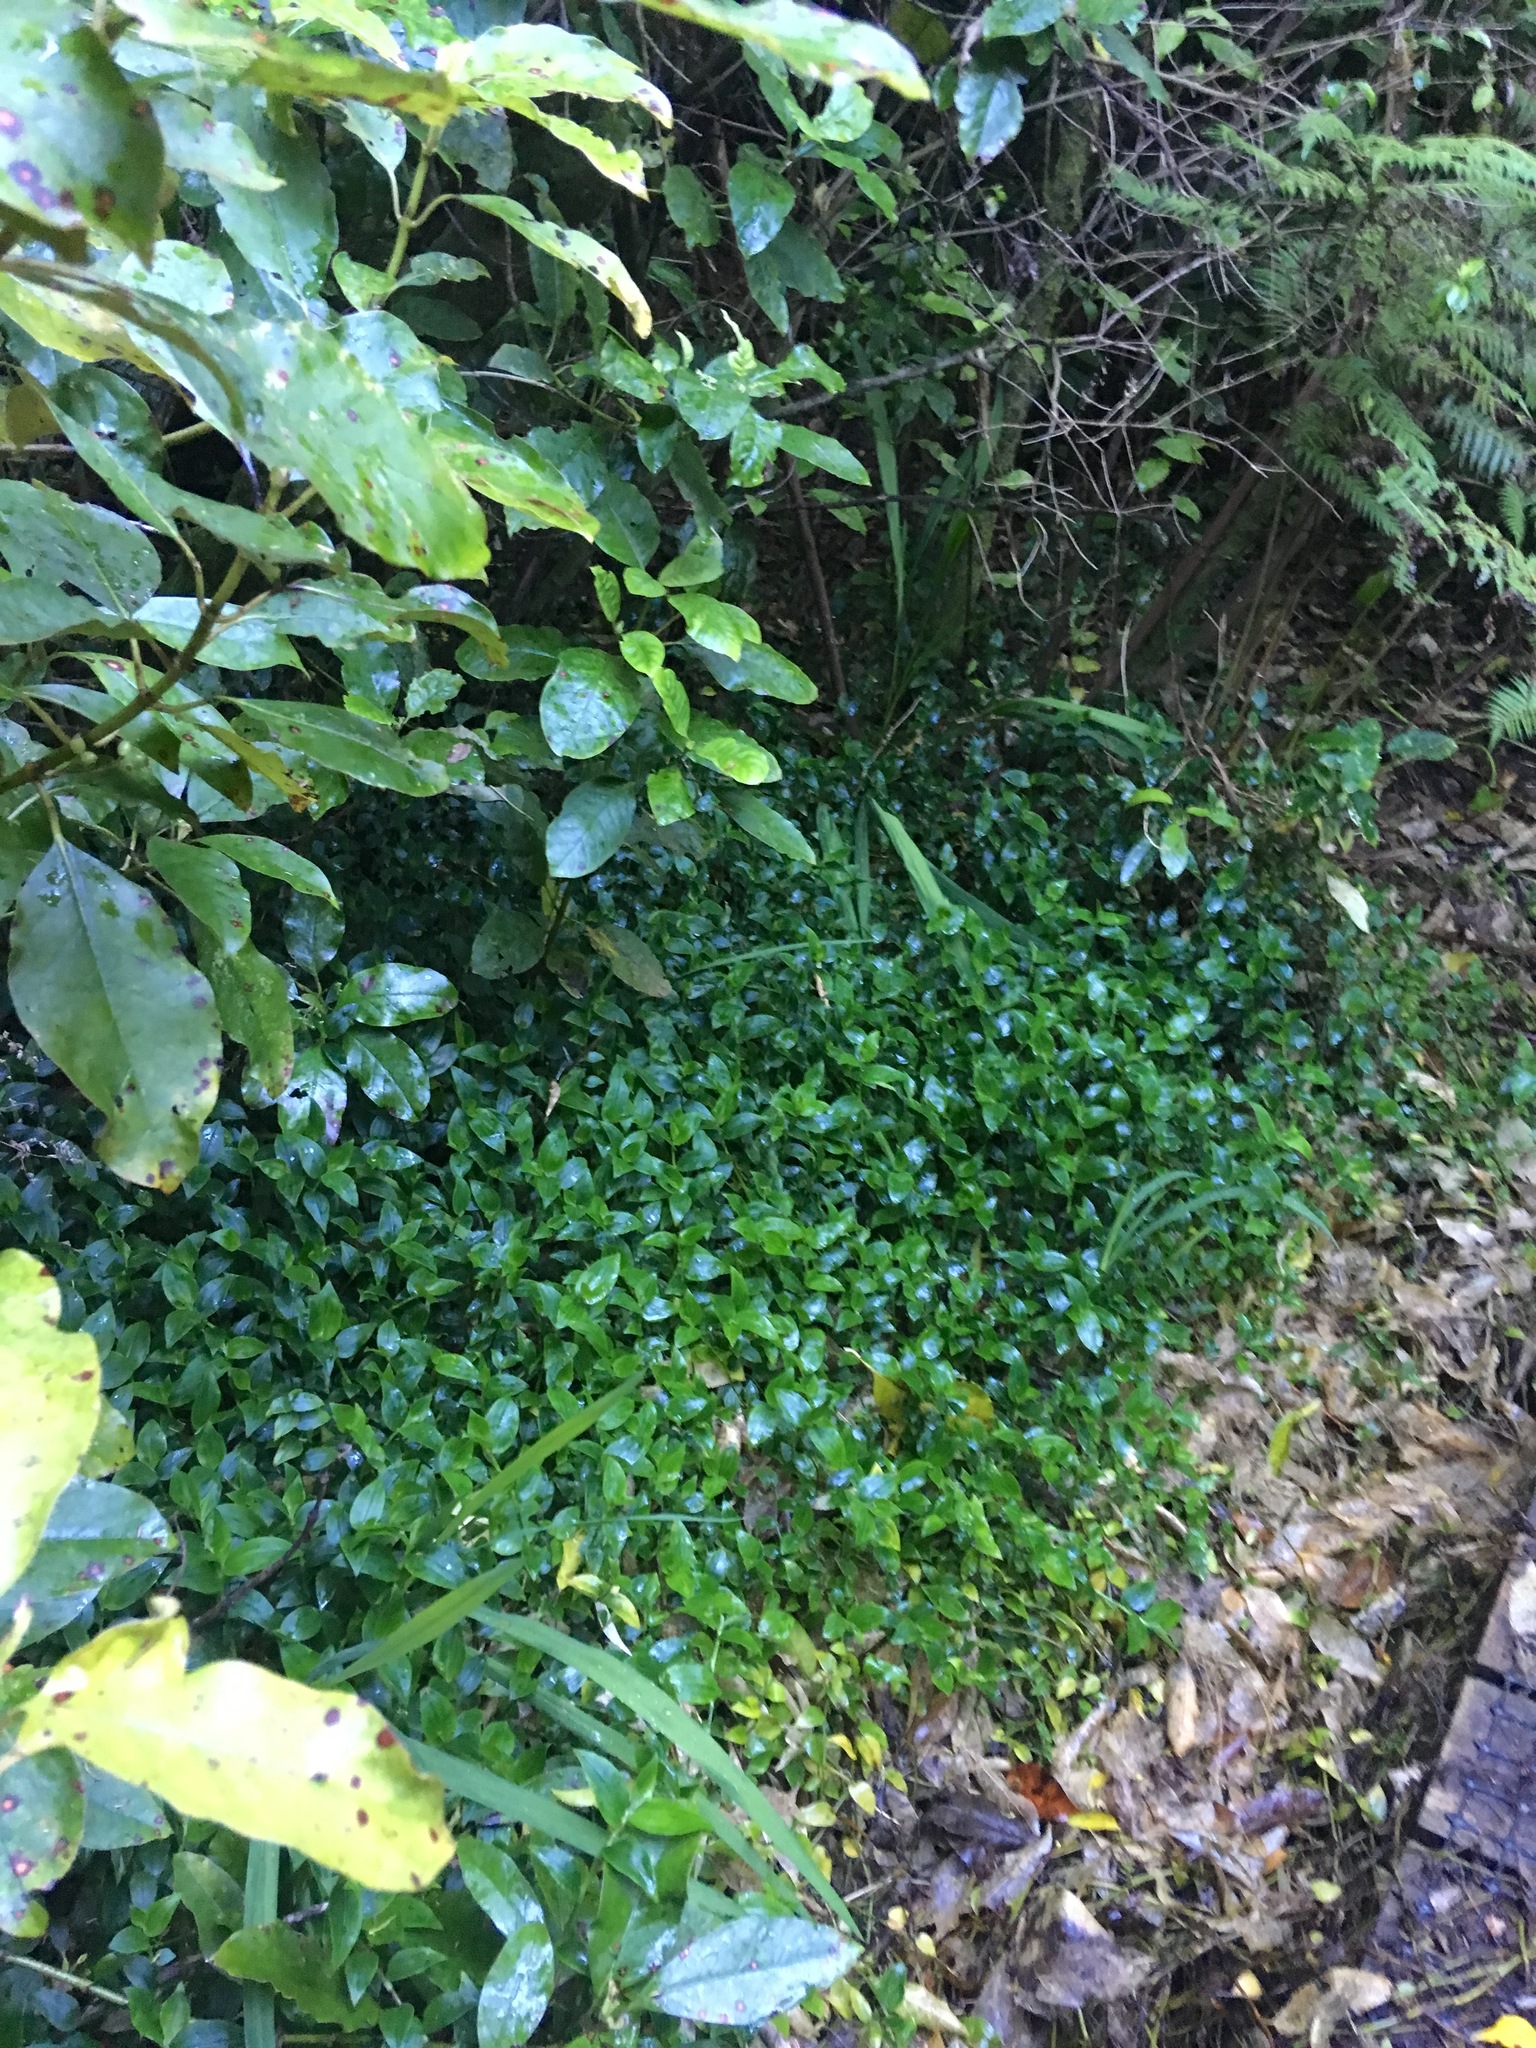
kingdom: Plantae
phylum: Tracheophyta
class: Liliopsida
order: Commelinales
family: Commelinaceae
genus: Tradescantia
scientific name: Tradescantia fluminensis
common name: Wandering-jew
